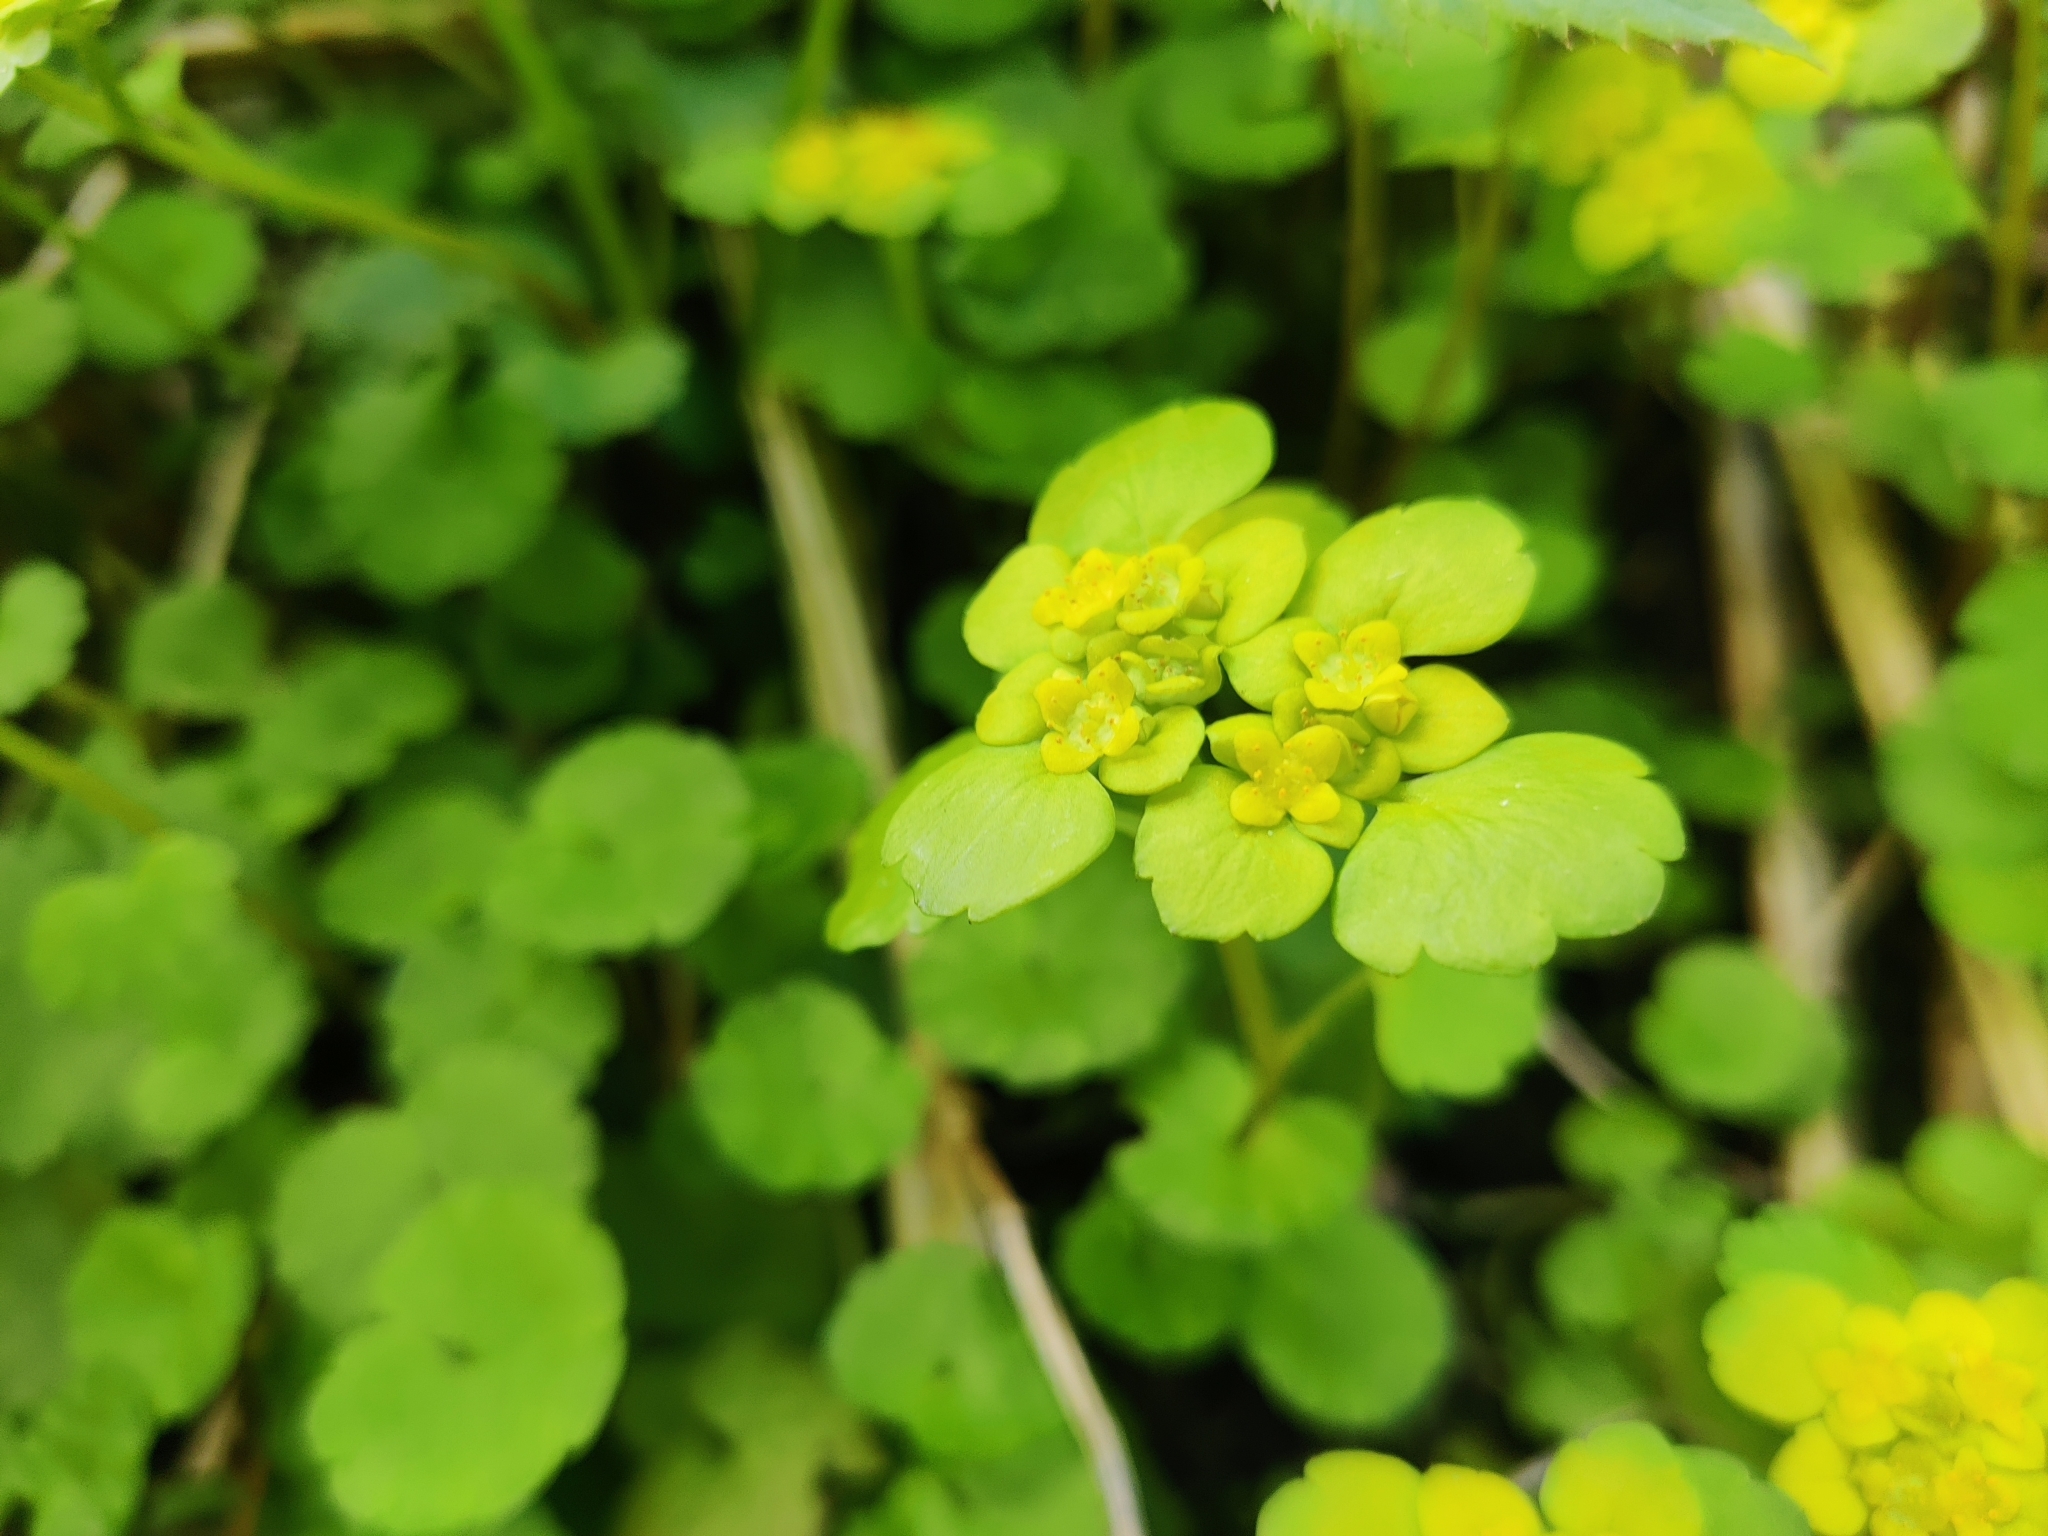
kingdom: Plantae
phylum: Tracheophyta
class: Magnoliopsida
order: Saxifragales
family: Saxifragaceae
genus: Chrysosplenium
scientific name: Chrysosplenium alternifolium
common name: Alternate-leaved golden-saxifrage
